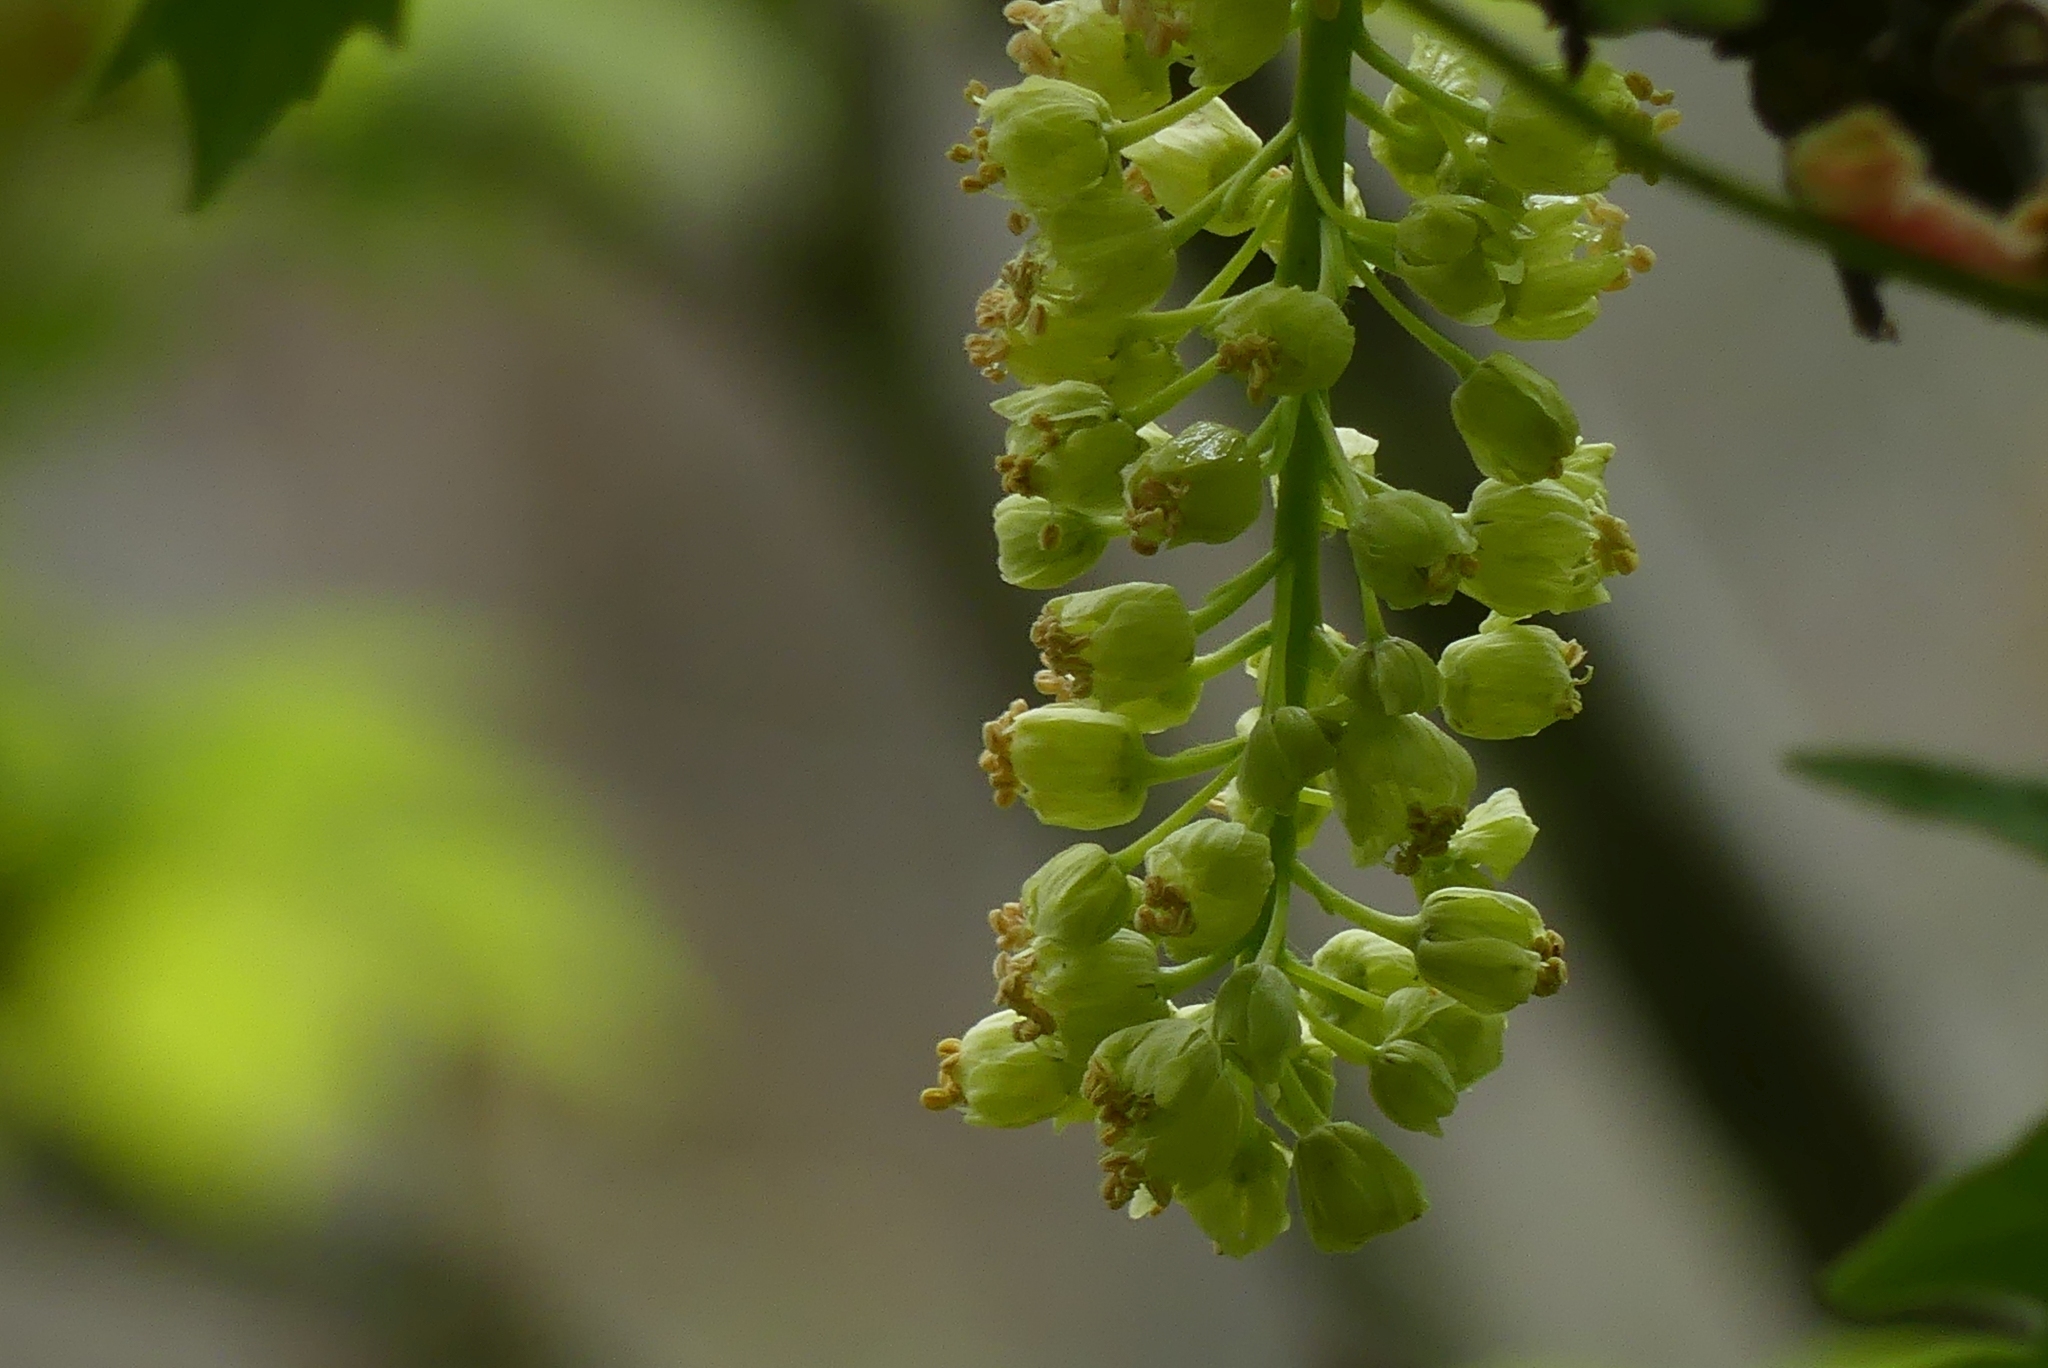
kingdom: Plantae
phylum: Tracheophyta
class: Magnoliopsida
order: Sapindales
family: Sapindaceae
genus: Acer
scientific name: Acer macrophyllum
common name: Oregon maple
